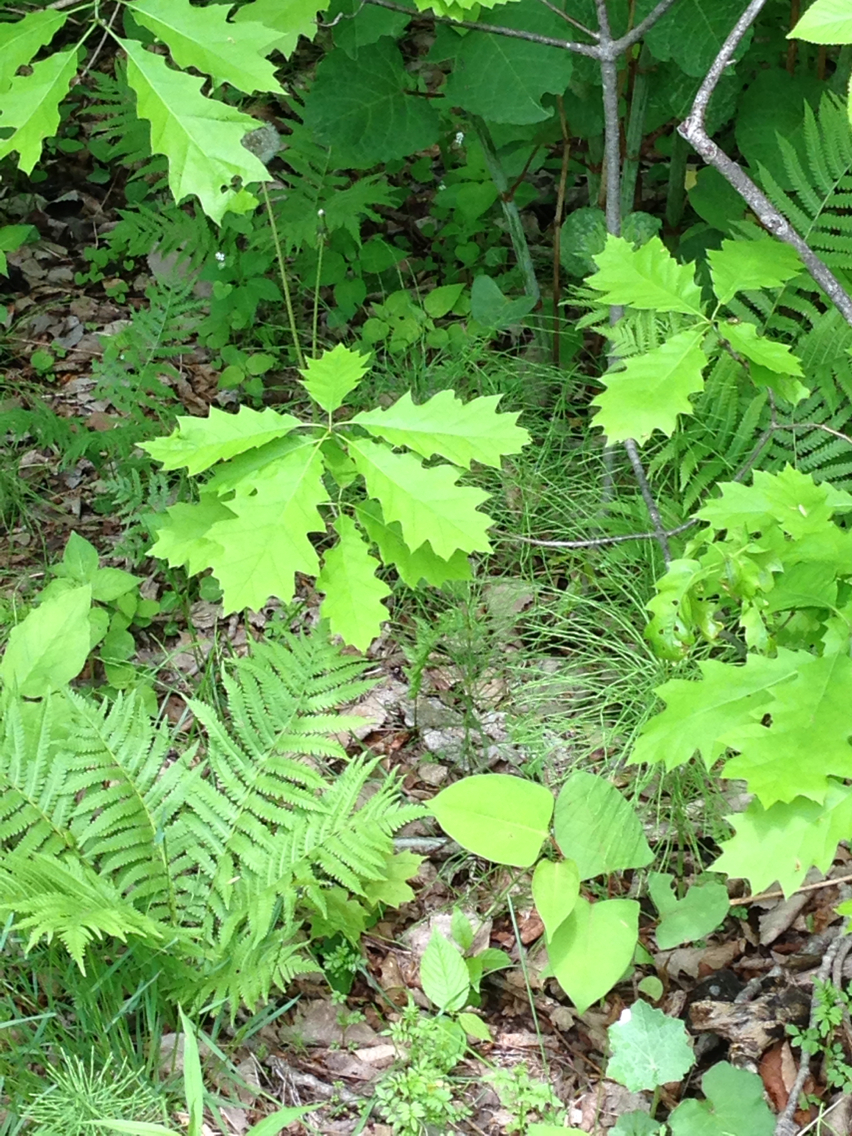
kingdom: Plantae
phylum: Tracheophyta
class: Magnoliopsida
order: Fagales
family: Fagaceae
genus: Quercus
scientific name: Quercus rubra
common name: Red oak
